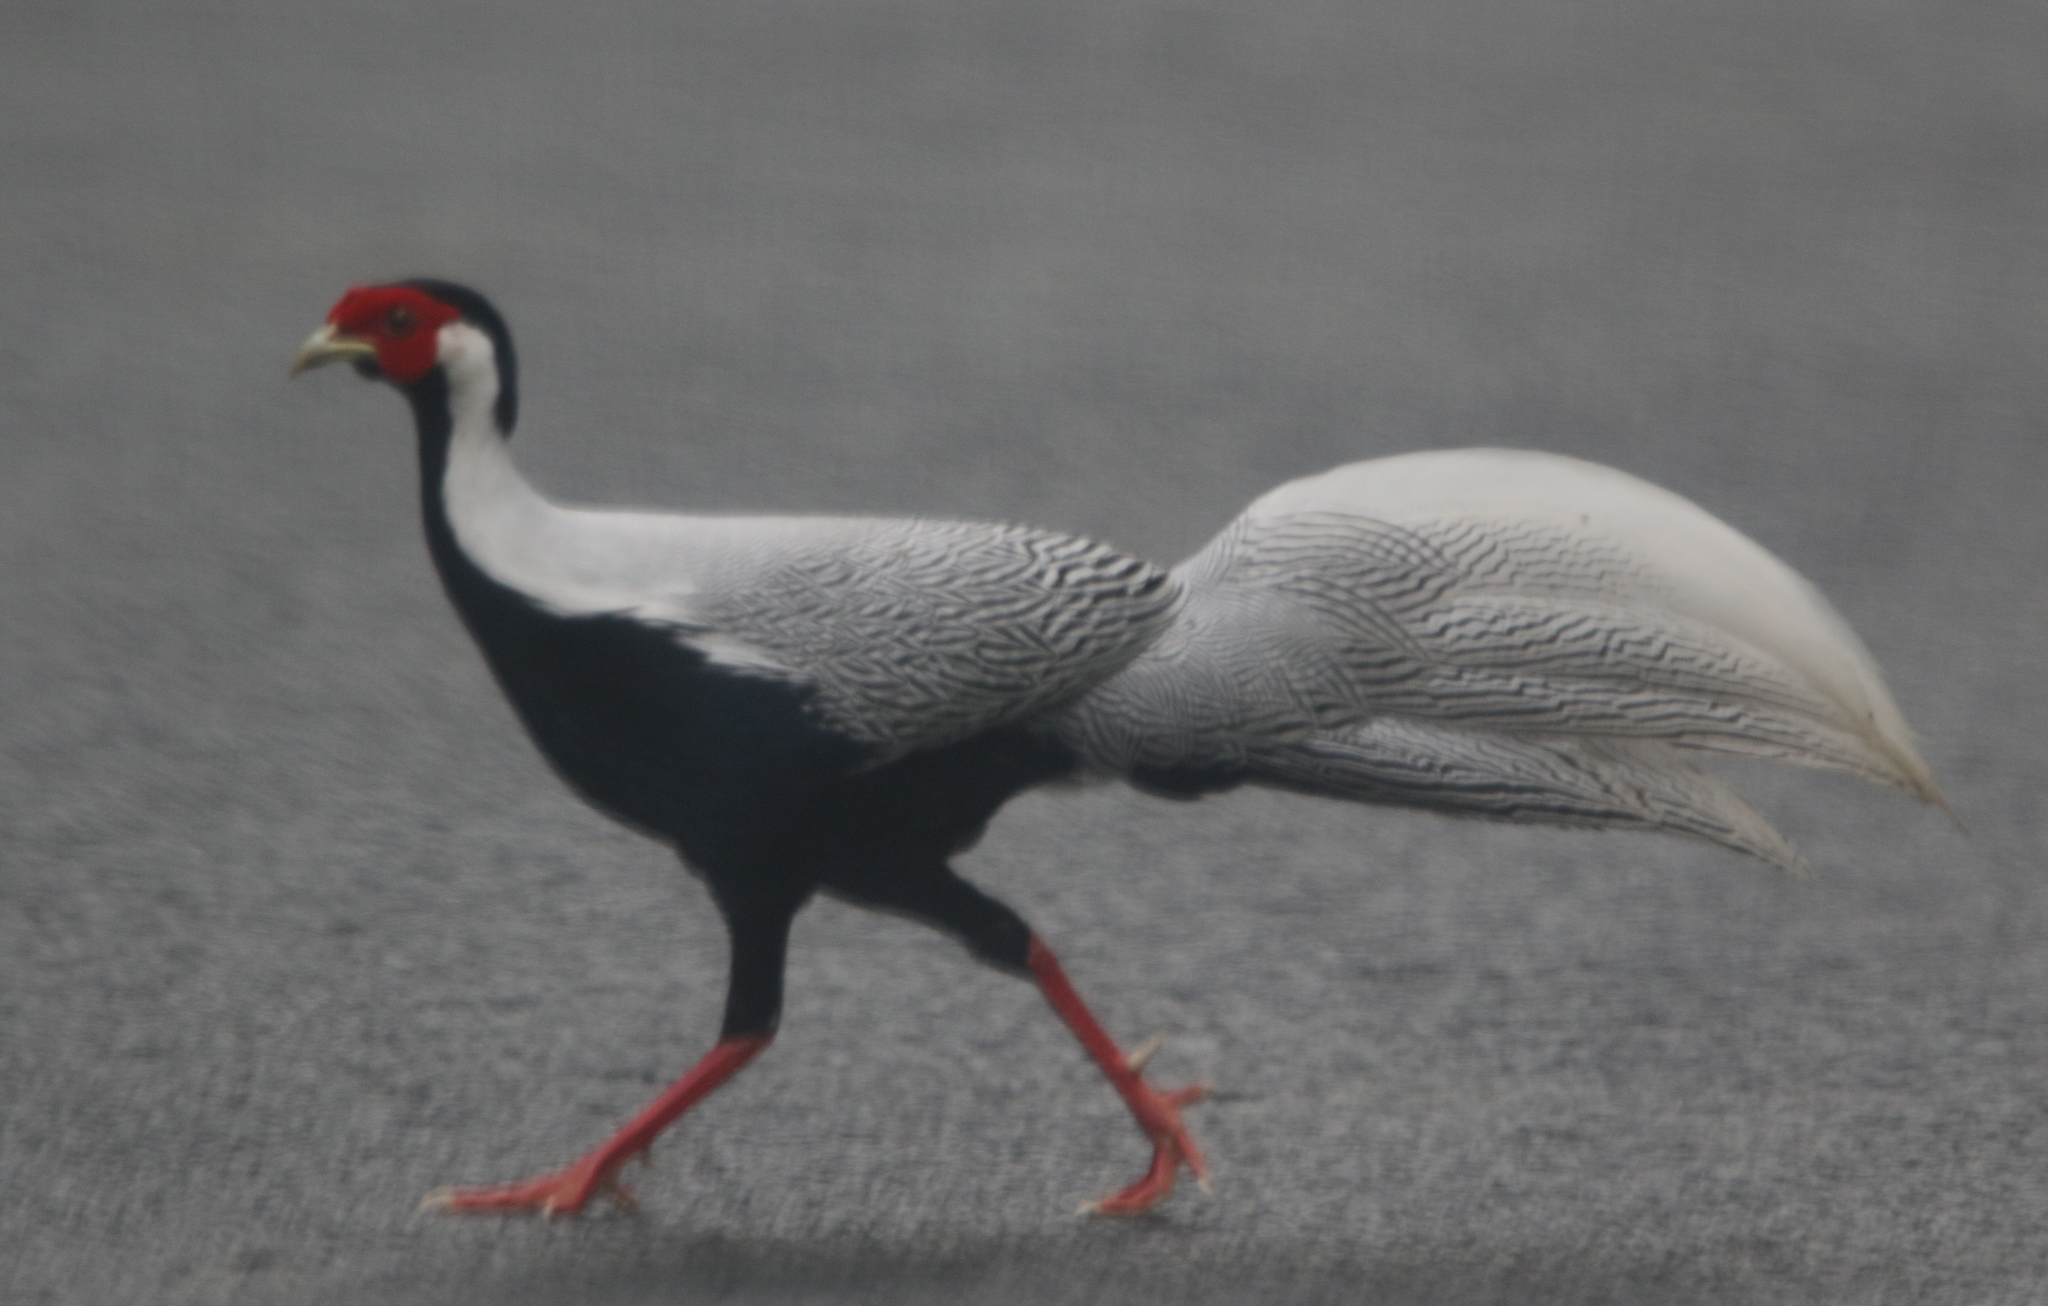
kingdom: Animalia
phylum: Chordata
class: Aves
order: Galliformes
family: Phasianidae
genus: Lophura
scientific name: Lophura nycthemera
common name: Silver pheasant
